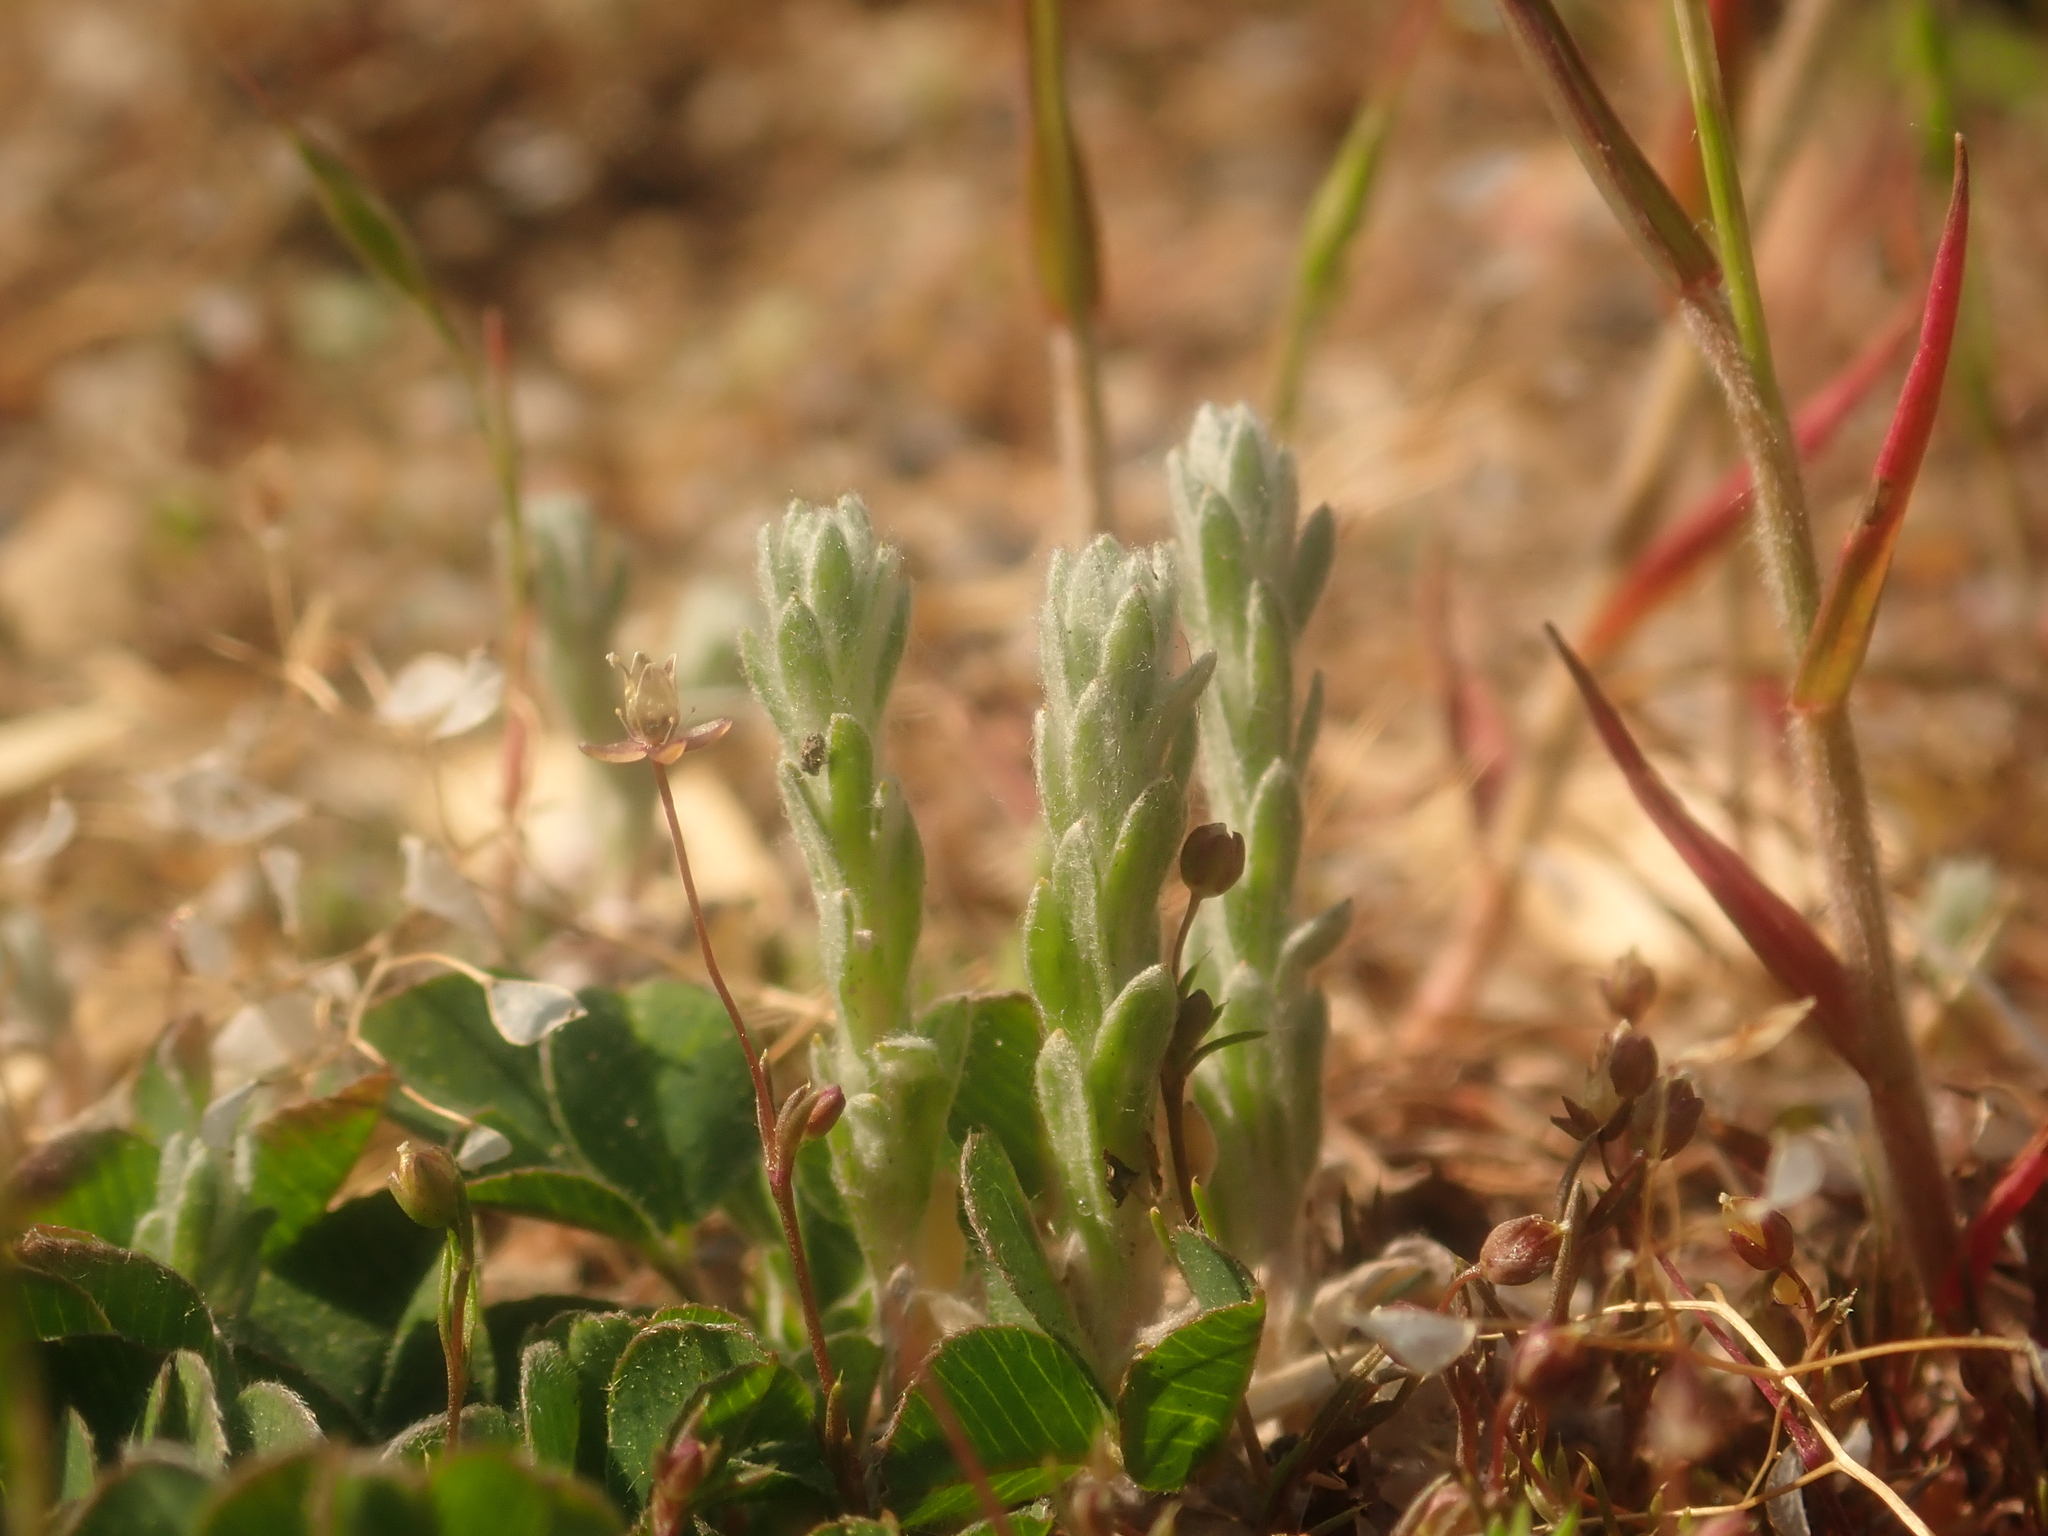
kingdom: Plantae
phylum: Tracheophyta
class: Magnoliopsida
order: Asterales
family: Asteraceae
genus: Filago
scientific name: Filago arvensis
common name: Field cudweed
